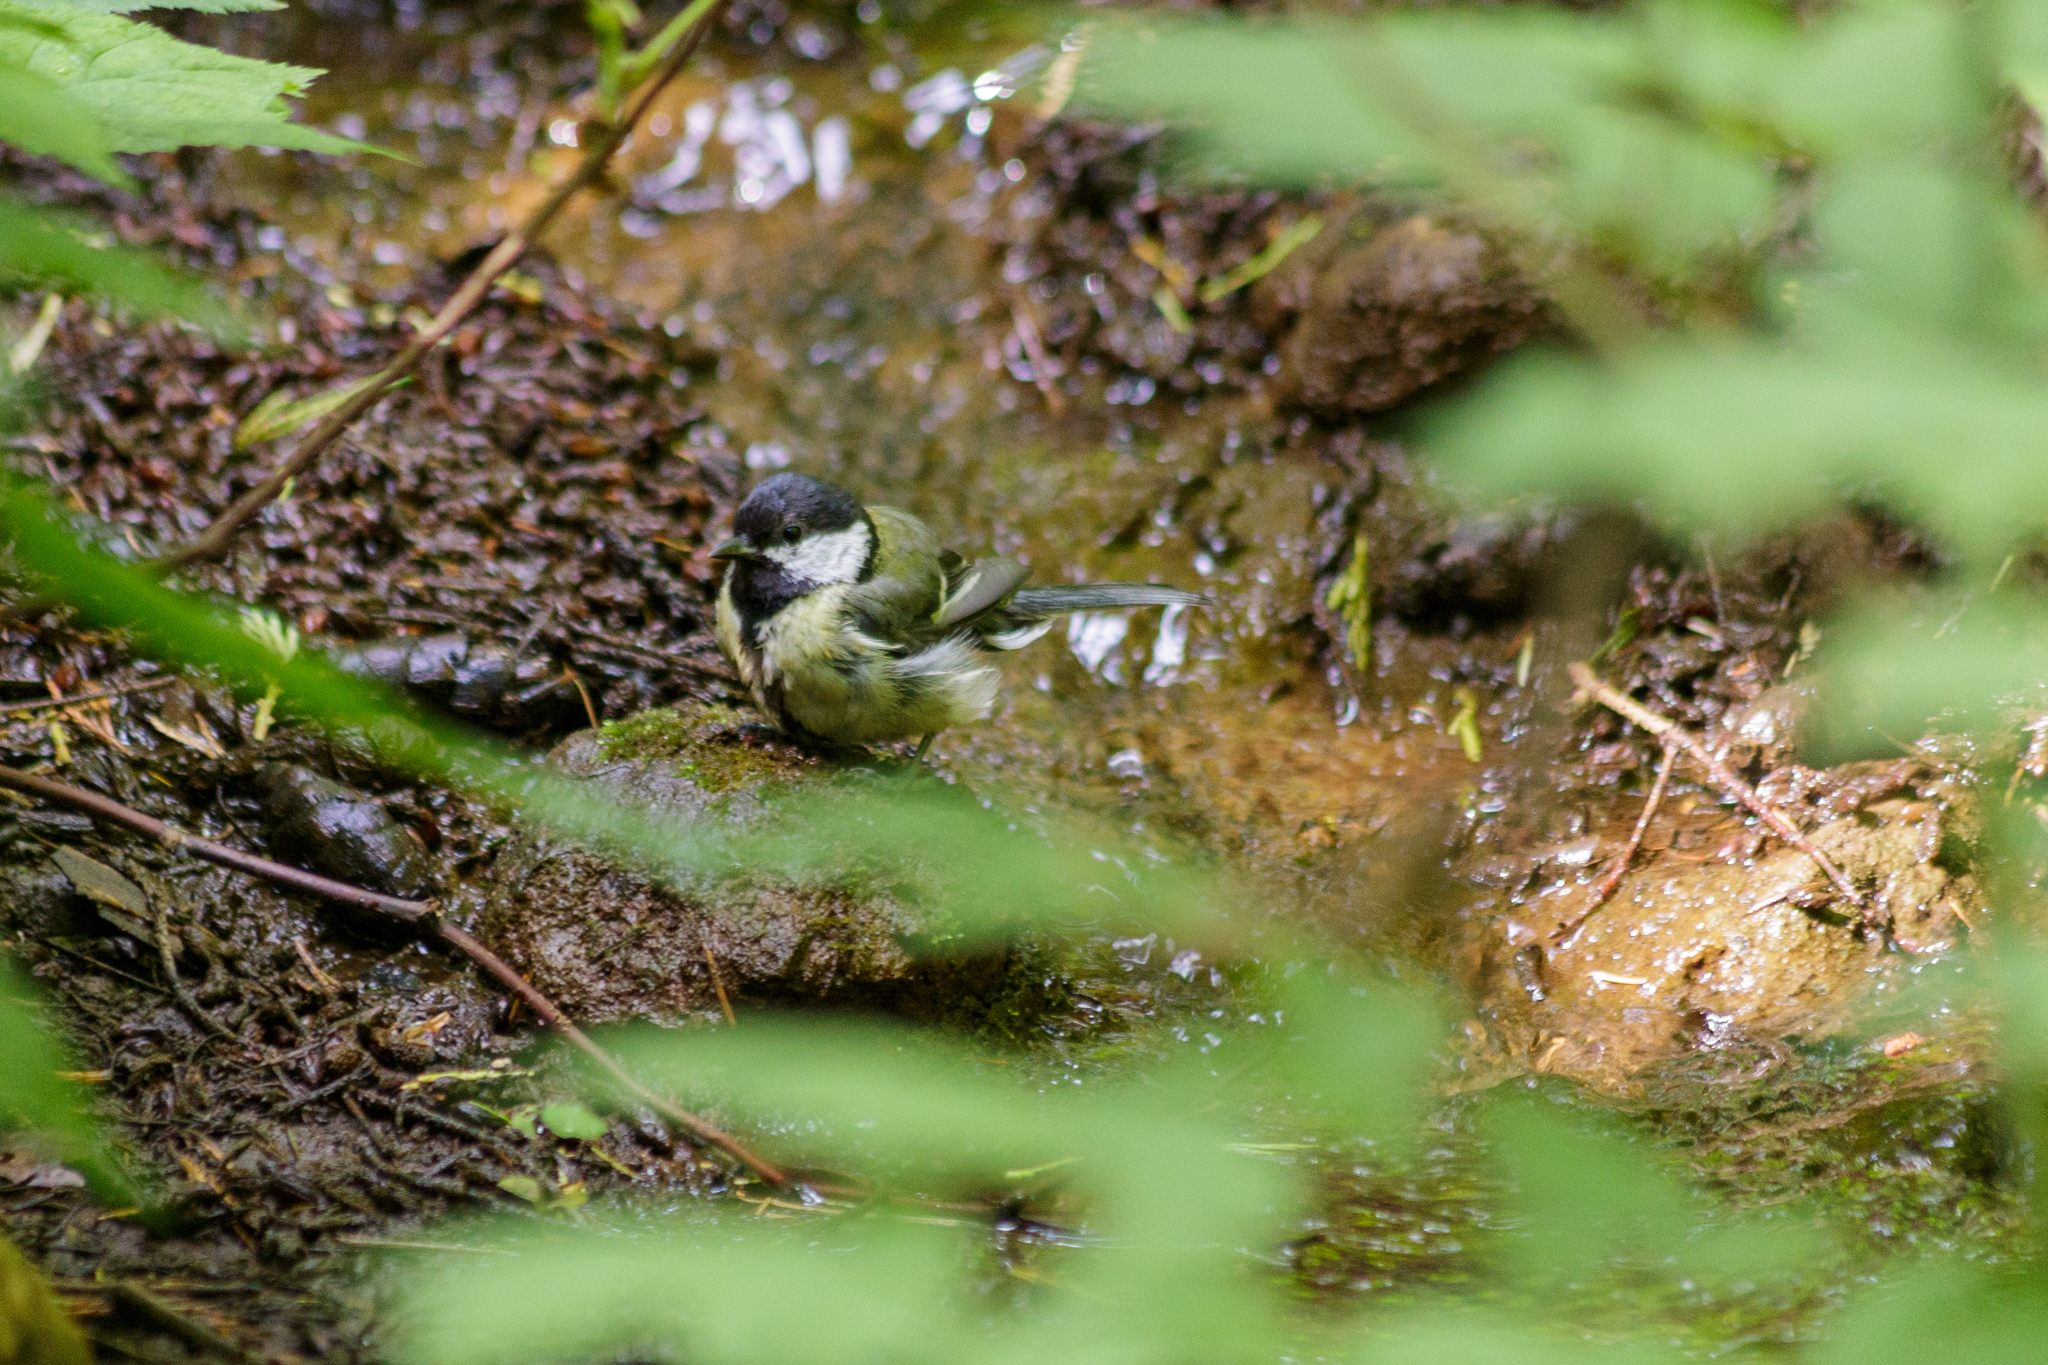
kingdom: Animalia
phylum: Chordata
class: Aves
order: Passeriformes
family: Paridae
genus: Parus
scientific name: Parus major
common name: Great tit
